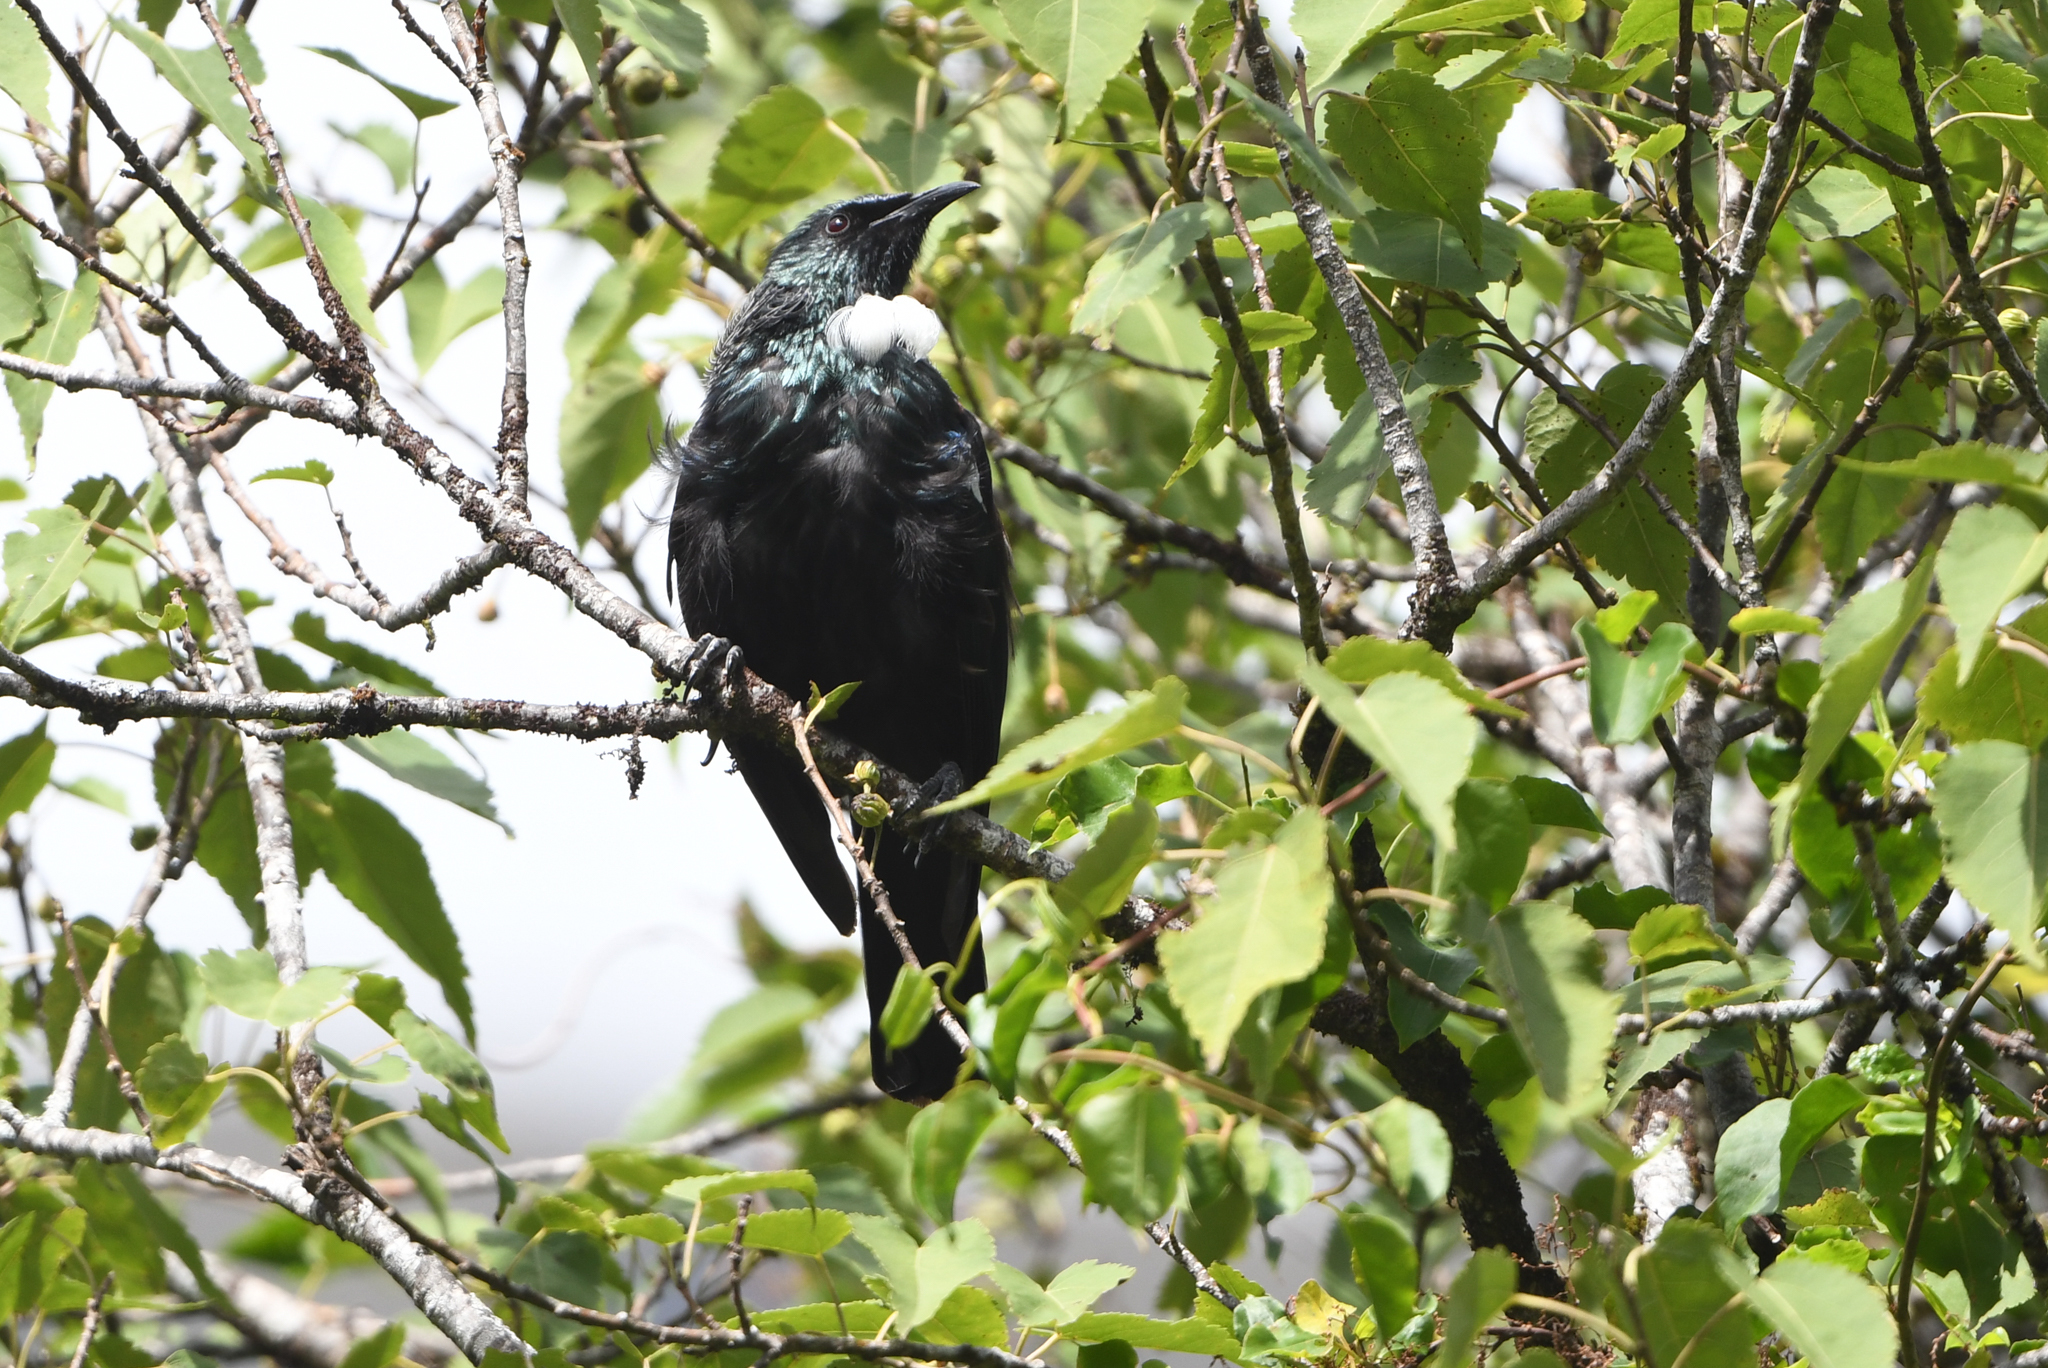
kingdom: Animalia
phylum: Chordata
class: Aves
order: Passeriformes
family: Meliphagidae
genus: Prosthemadera
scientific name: Prosthemadera novaeseelandiae
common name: Tui
